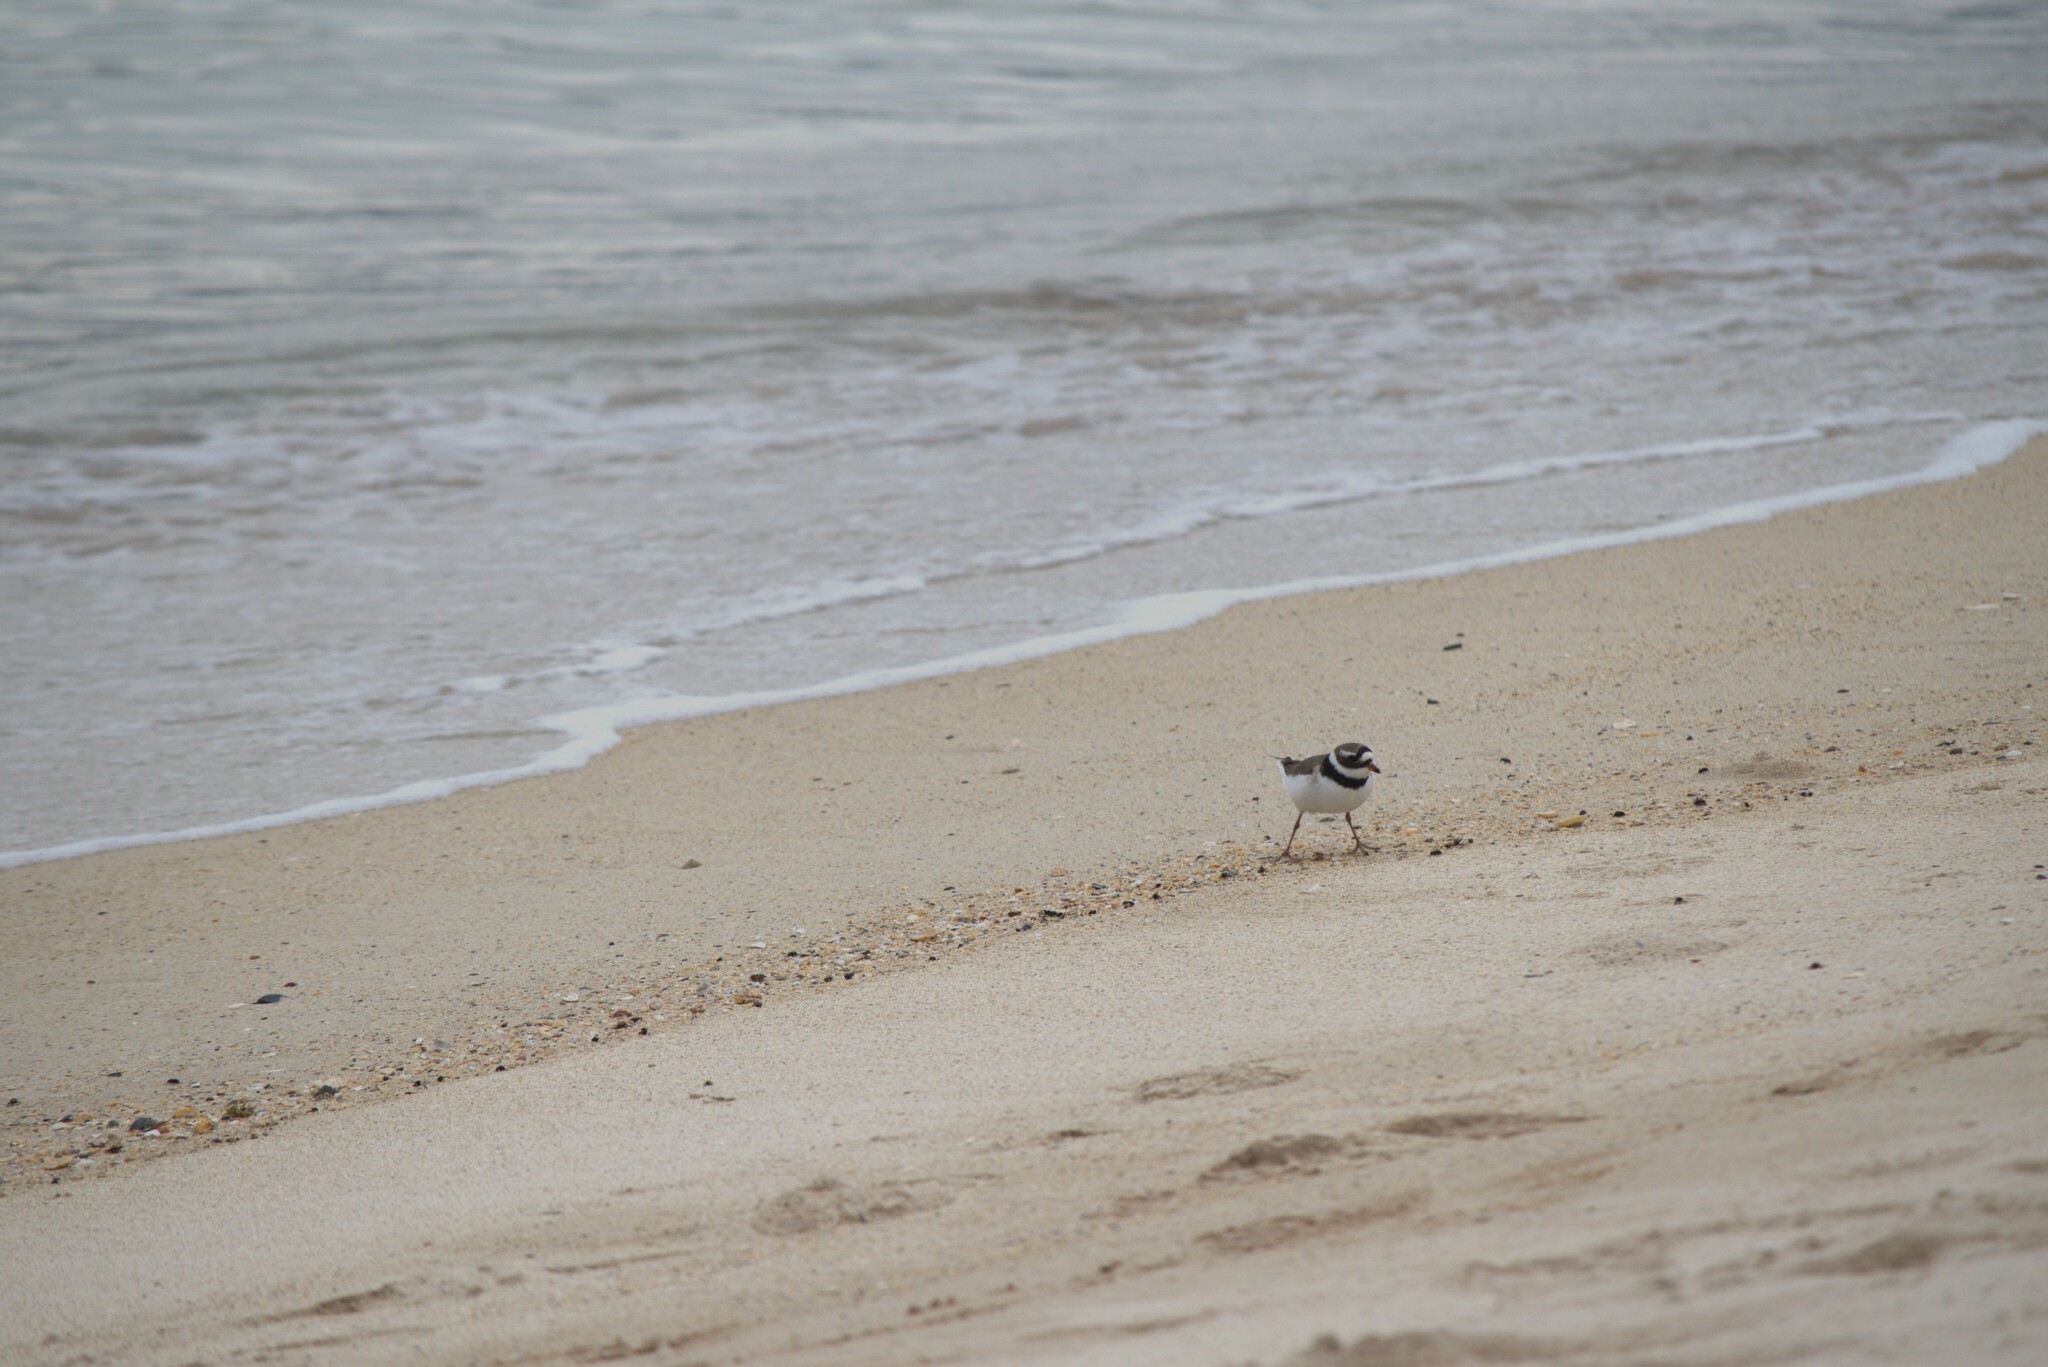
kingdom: Animalia
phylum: Chordata
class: Aves
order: Charadriiformes
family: Charadriidae
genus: Charadrius
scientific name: Charadrius hiaticula
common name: Common ringed plover
